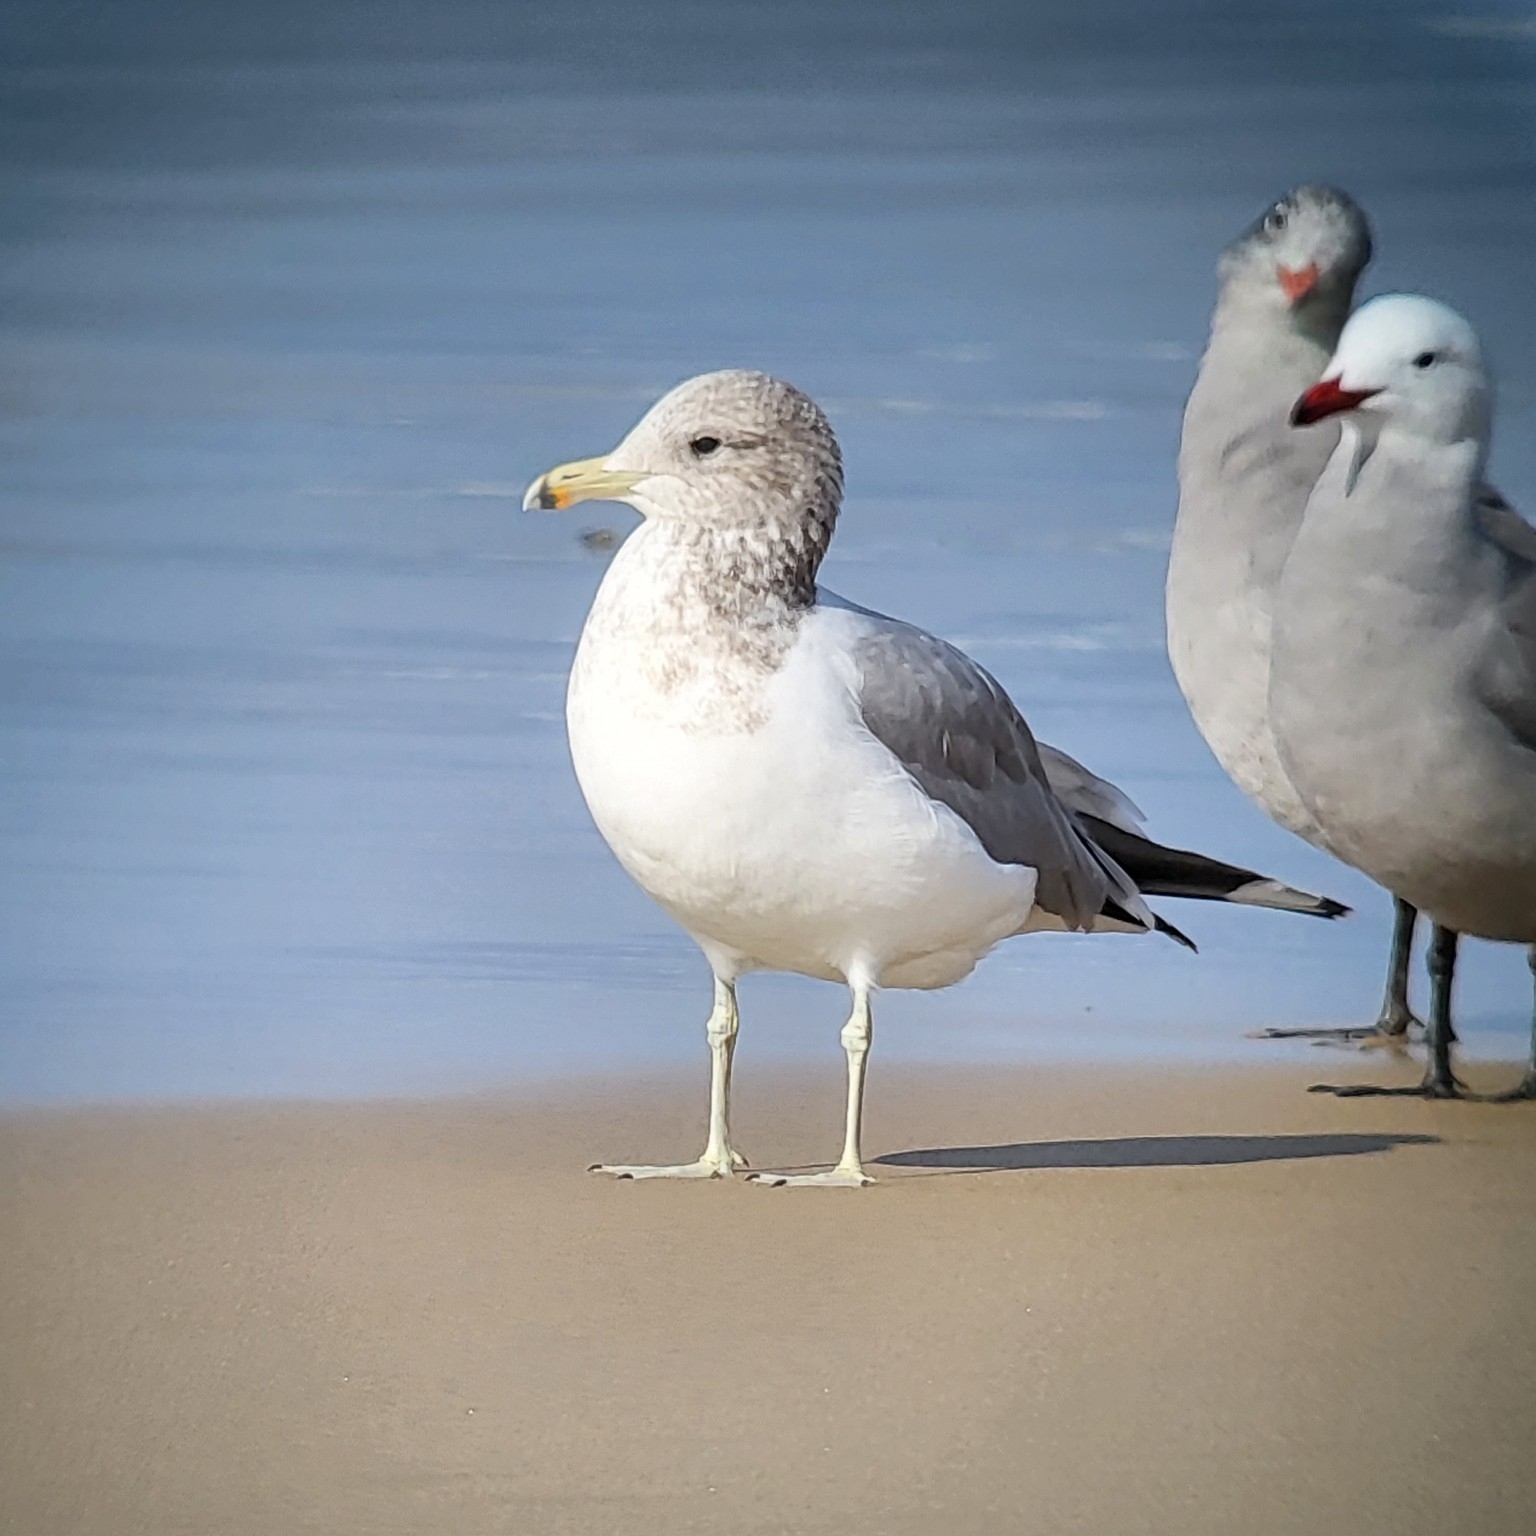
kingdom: Animalia
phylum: Chordata
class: Aves
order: Charadriiformes
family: Laridae
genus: Larus
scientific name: Larus californicus
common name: California gull
